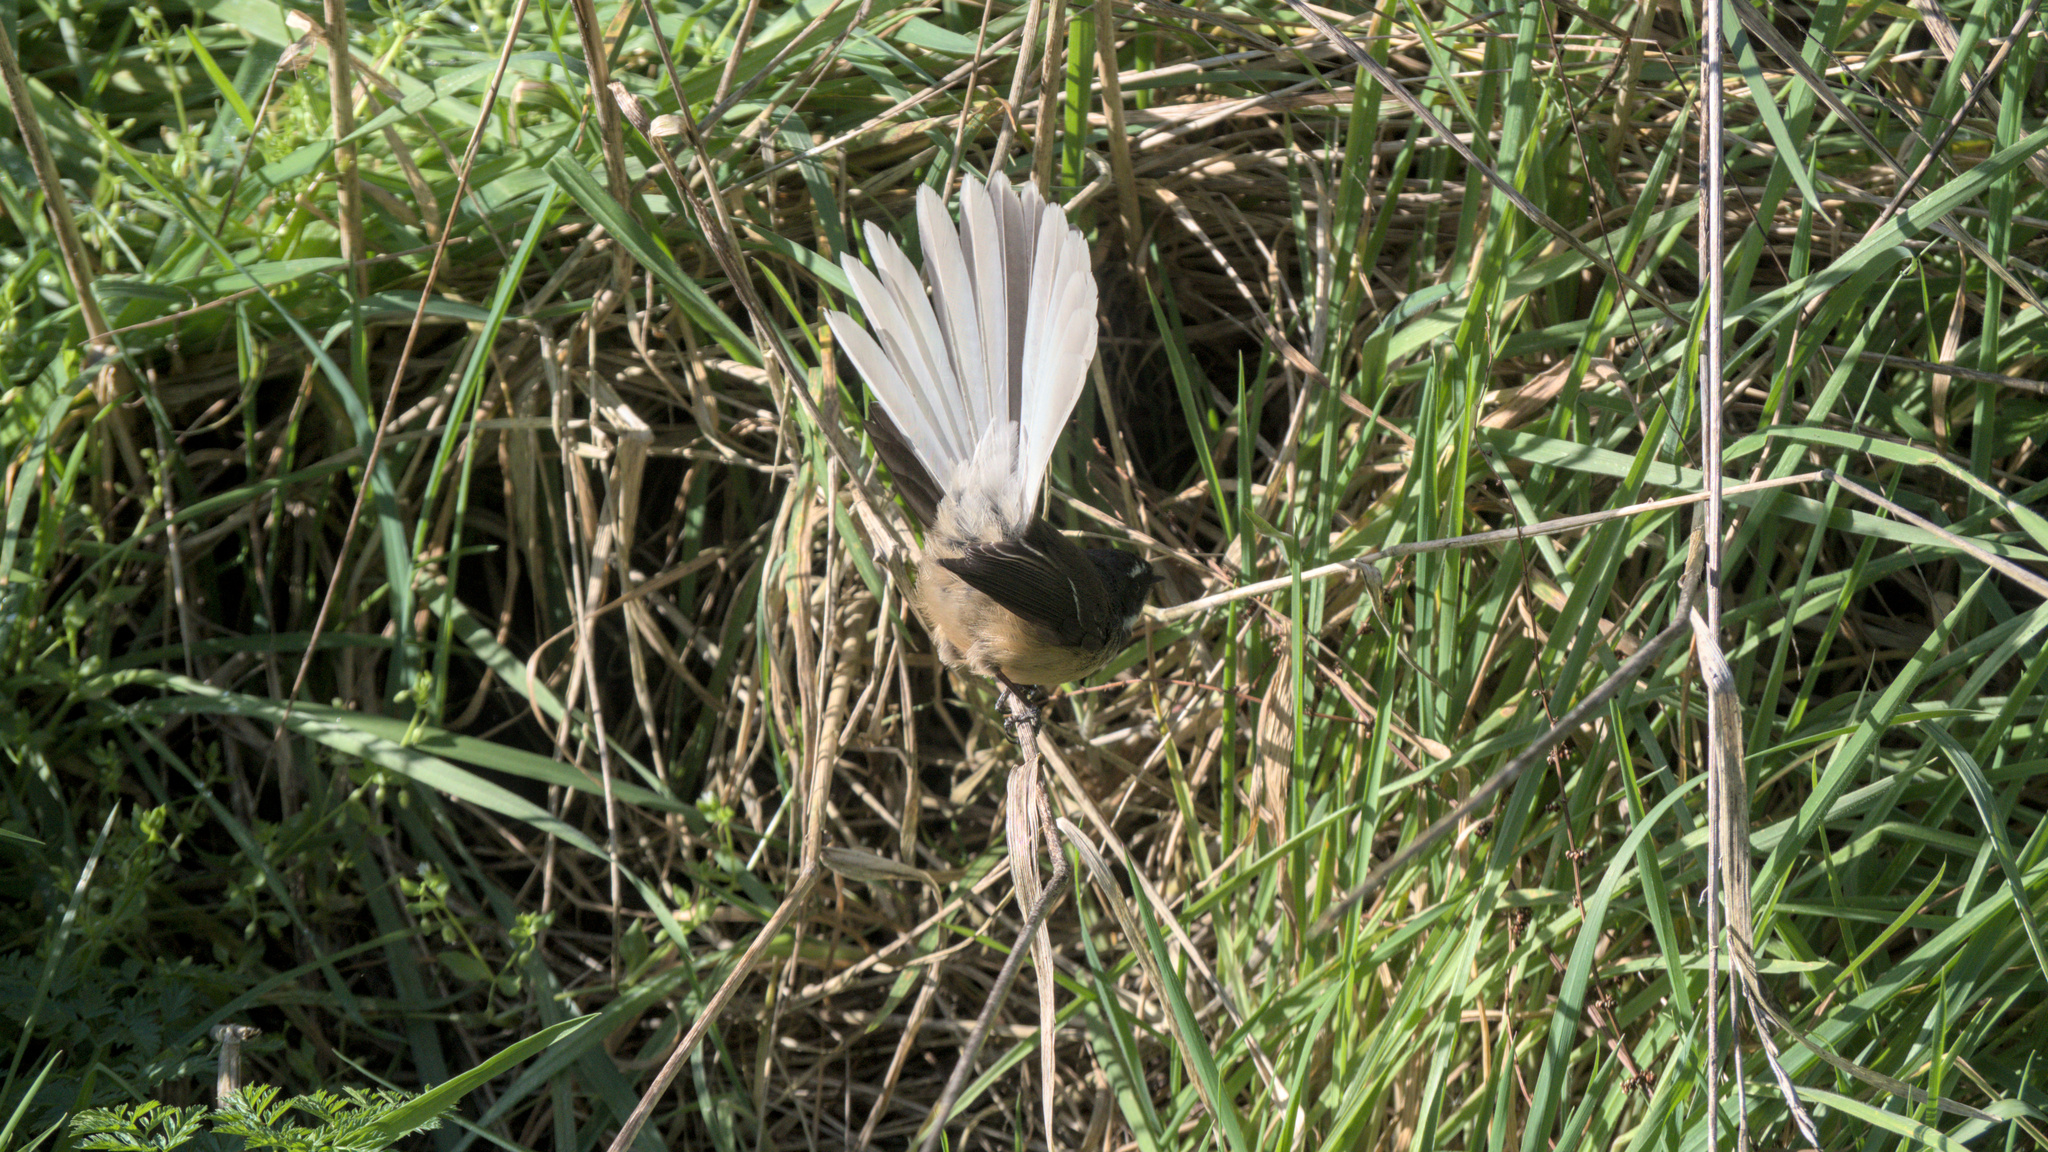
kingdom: Animalia
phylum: Chordata
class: Aves
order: Passeriformes
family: Rhipiduridae
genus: Rhipidura
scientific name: Rhipidura fuliginosa
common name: New zealand fantail
